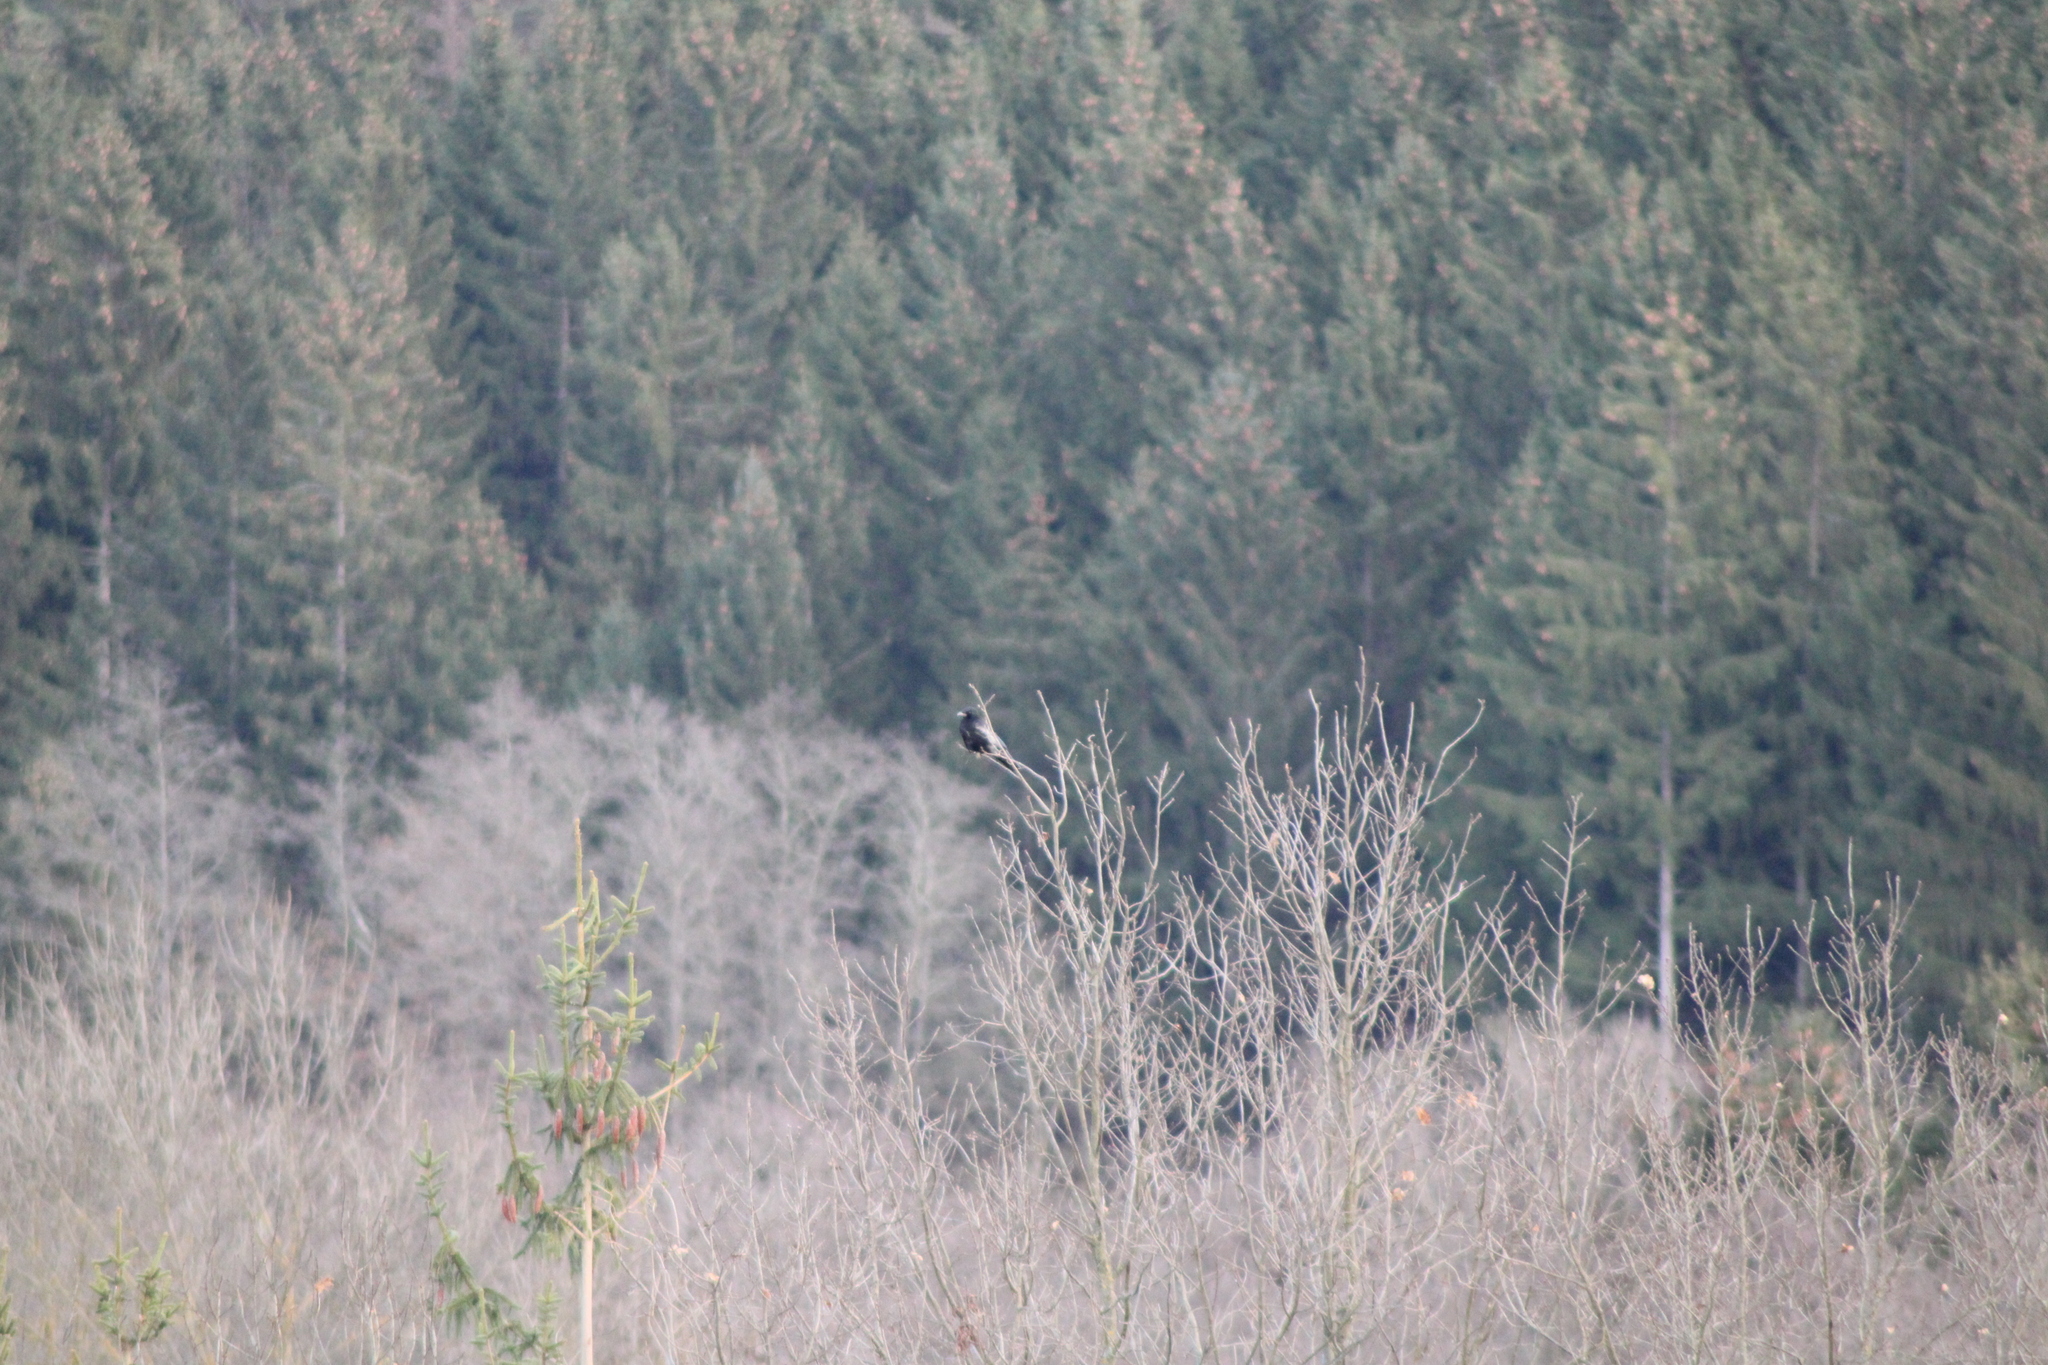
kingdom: Animalia
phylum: Chordata
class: Aves
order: Passeriformes
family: Corvidae
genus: Corvus
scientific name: Corvus
